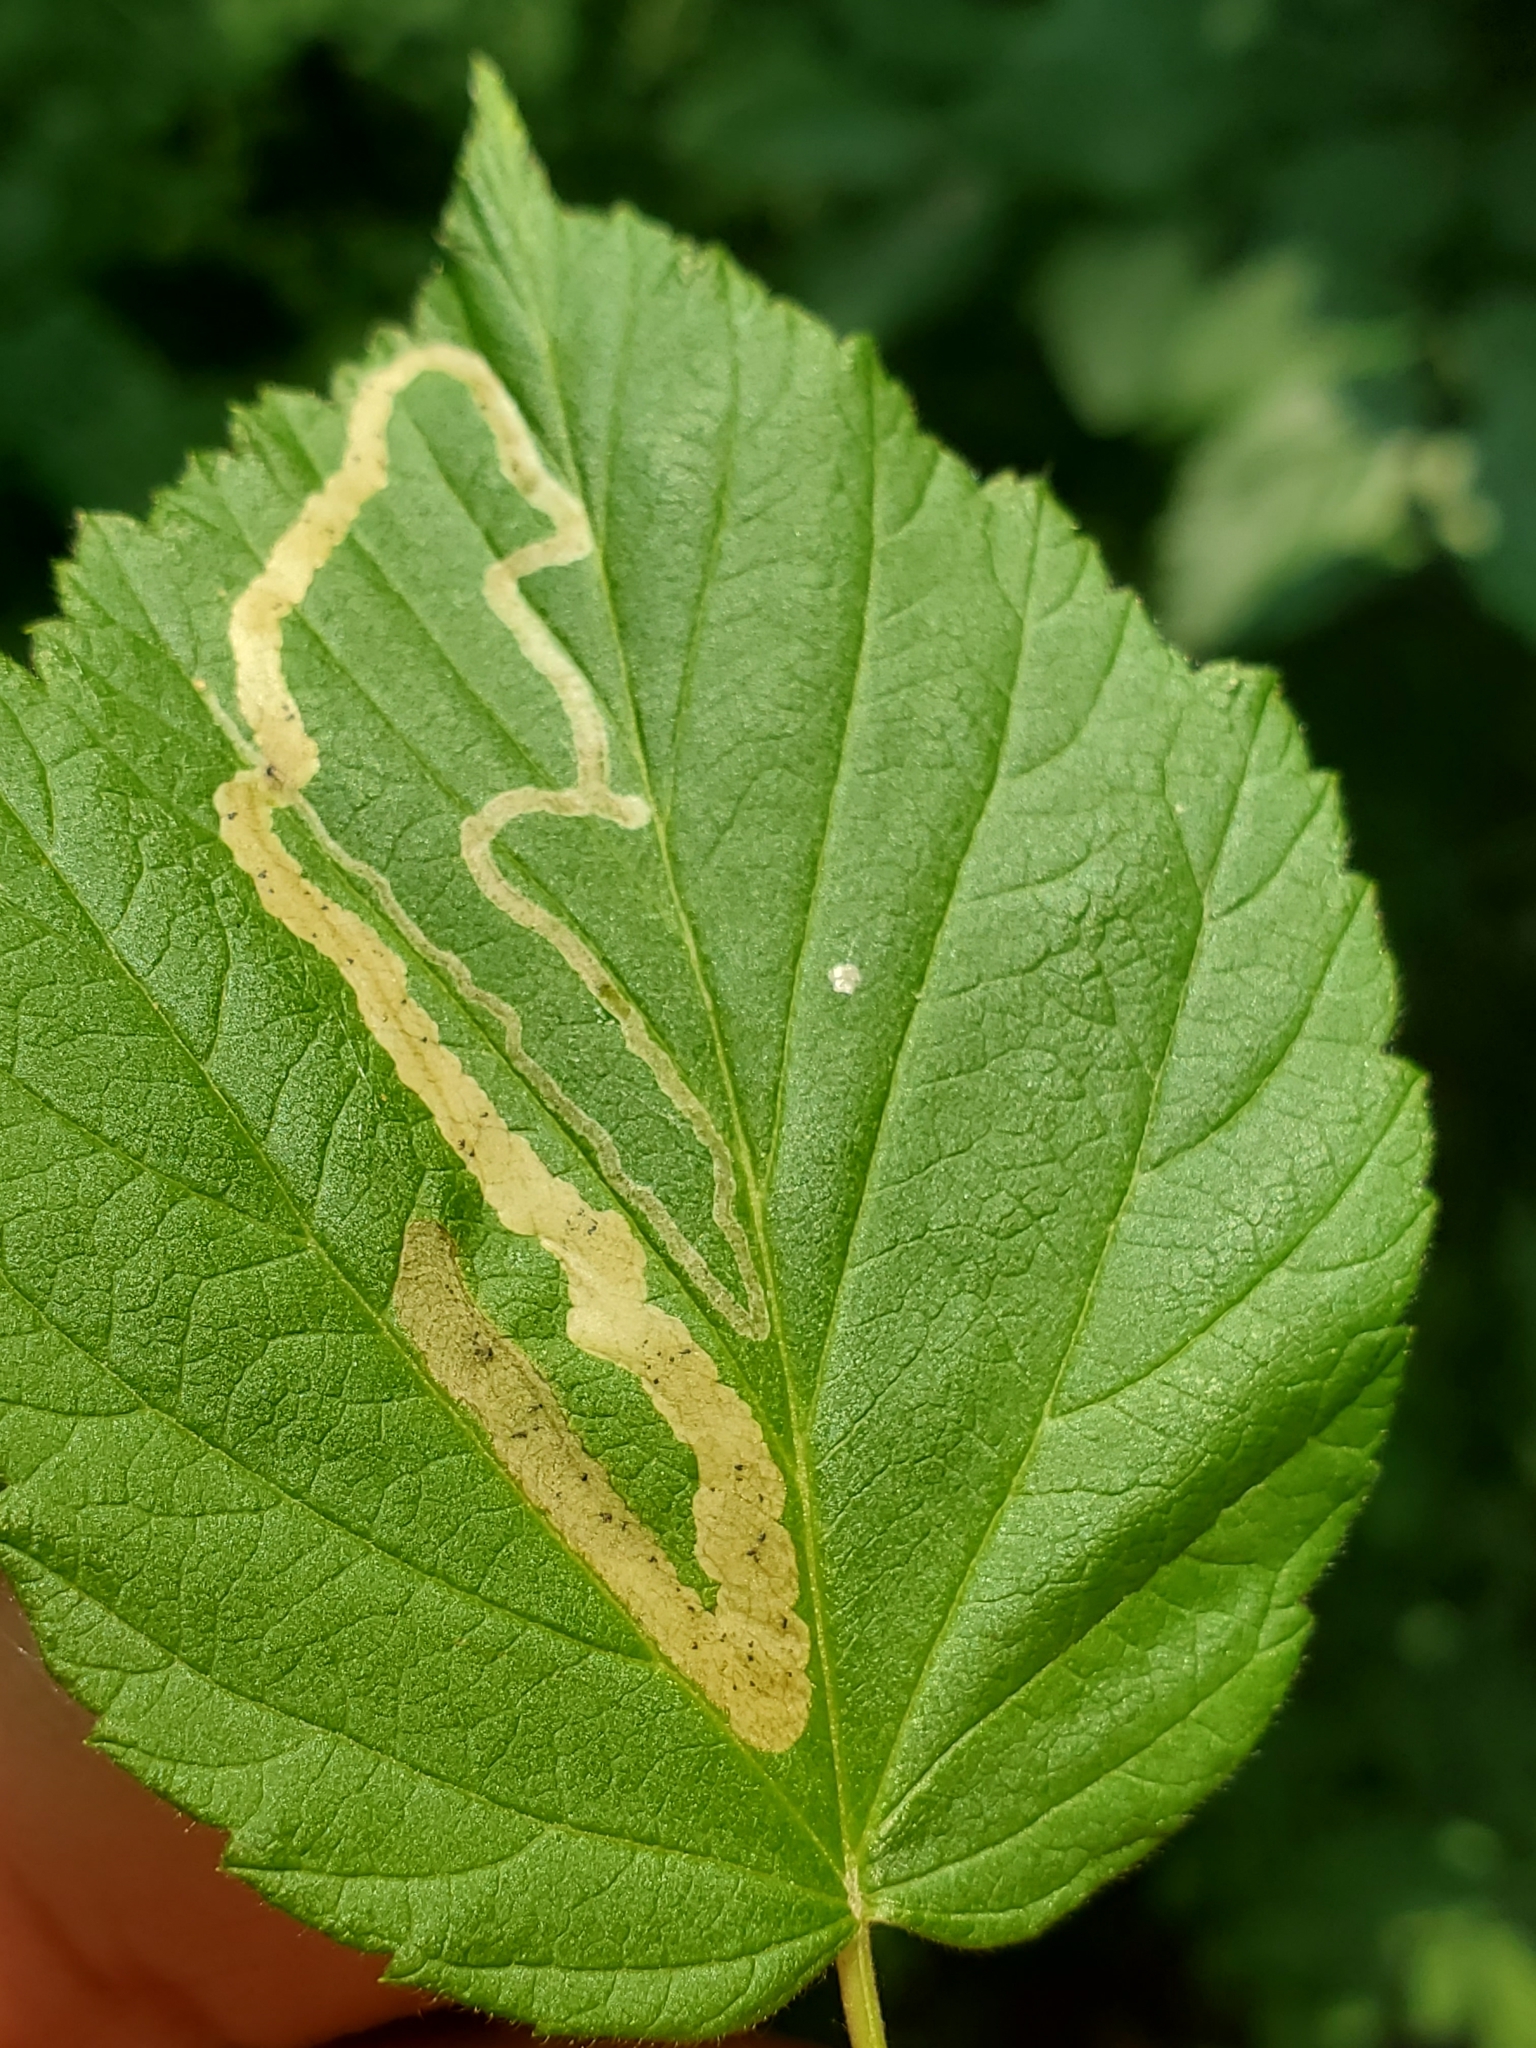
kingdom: Animalia
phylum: Arthropoda
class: Insecta
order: Diptera
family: Agromyzidae
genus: Agromyza
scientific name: Agromyza vockerothi
